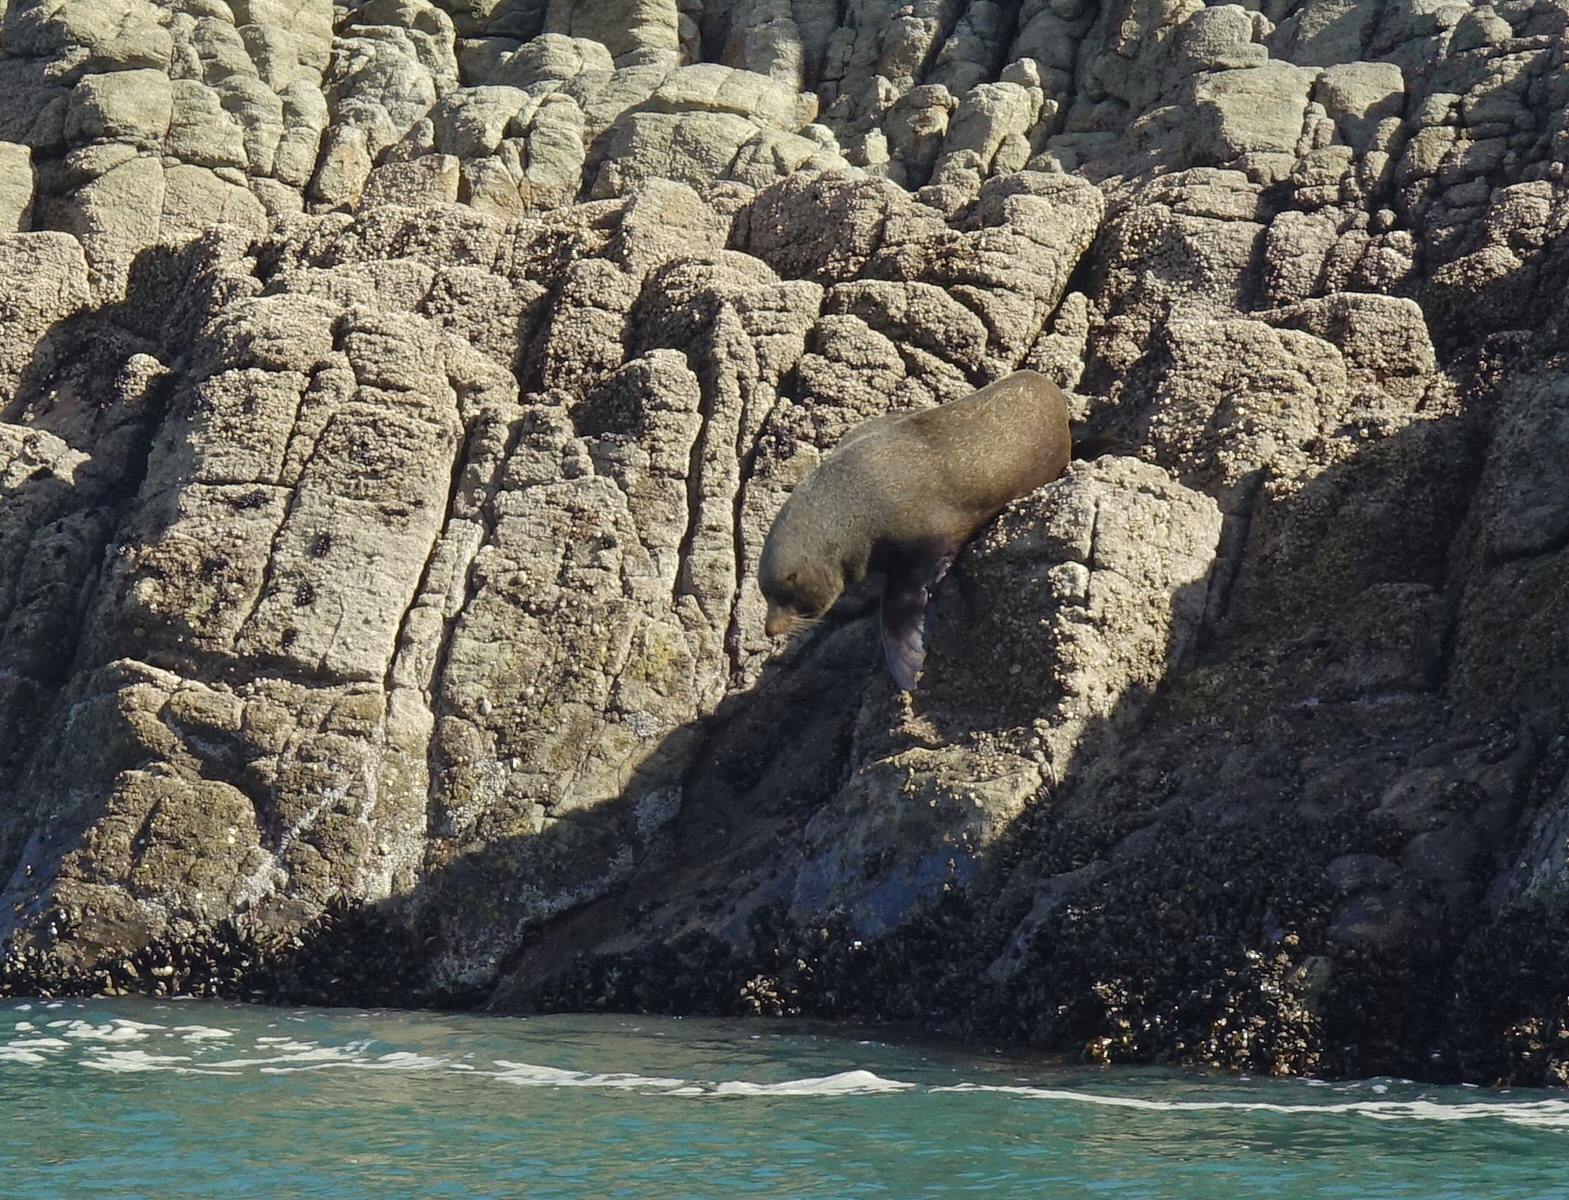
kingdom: Animalia
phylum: Chordata
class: Mammalia
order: Carnivora
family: Otariidae
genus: Arctocephalus
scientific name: Arctocephalus forsteri
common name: New zealand fur seal
